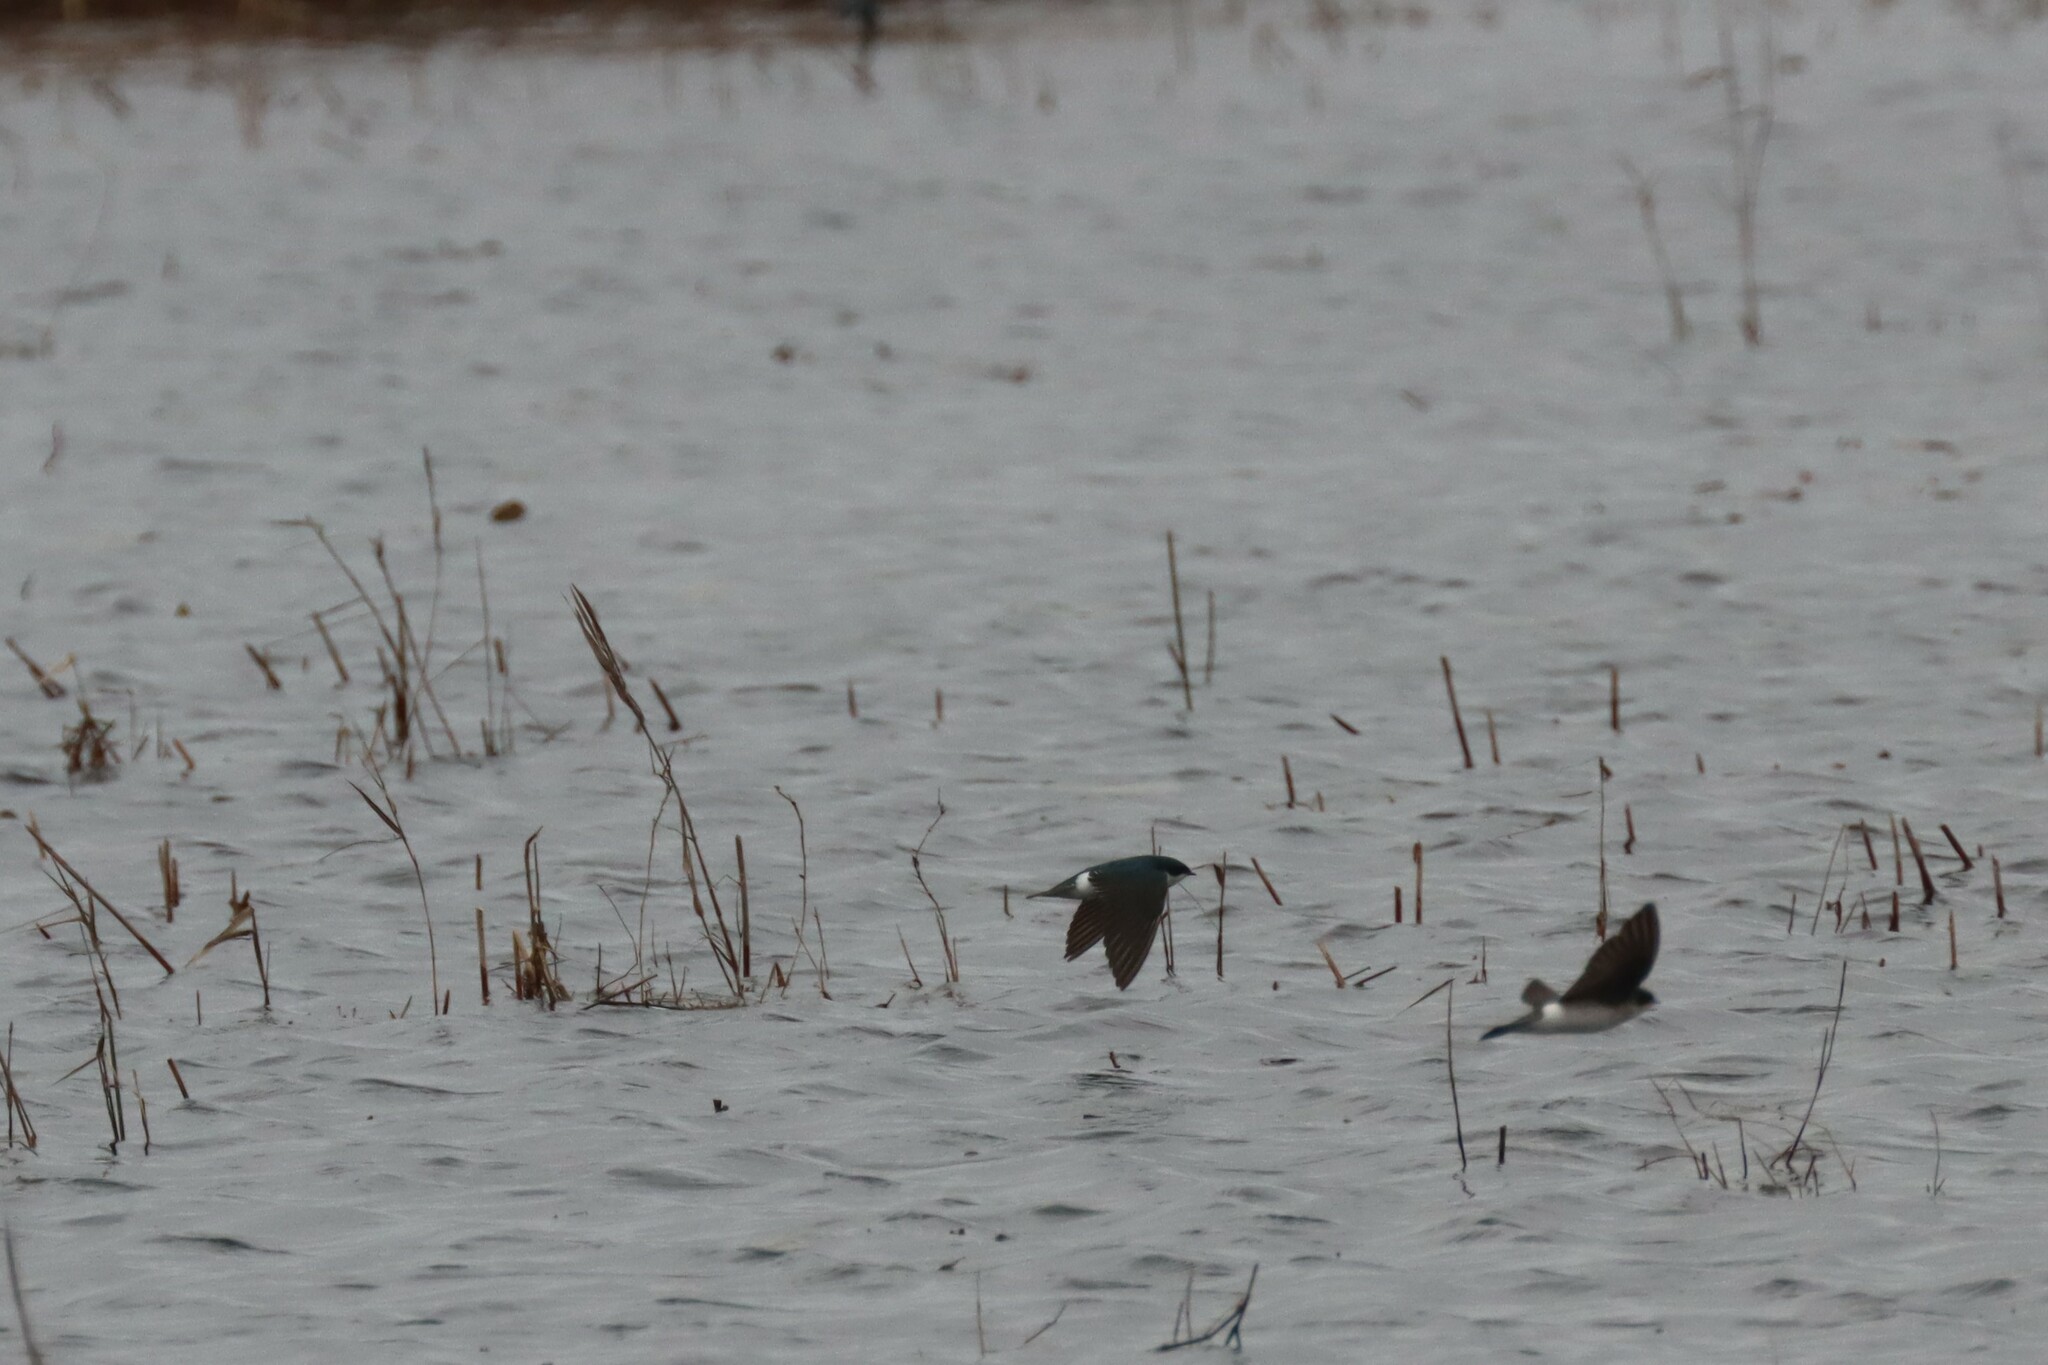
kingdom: Animalia
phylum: Chordata
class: Aves
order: Passeriformes
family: Hirundinidae
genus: Tachycineta
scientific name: Tachycineta bicolor
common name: Tree swallow
